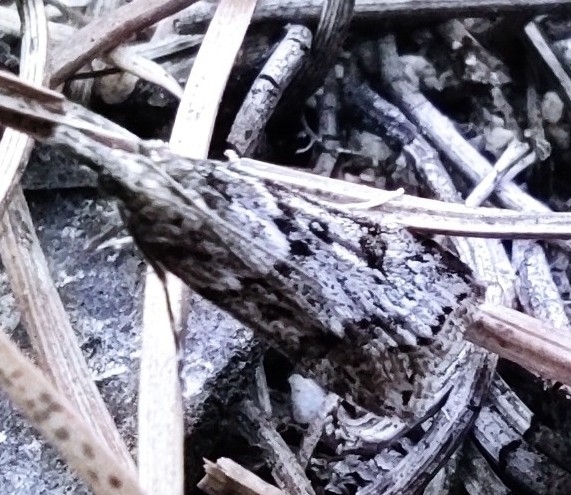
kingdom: Animalia
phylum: Arthropoda
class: Insecta
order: Lepidoptera
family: Crambidae
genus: Eudonia
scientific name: Eudonia angustea
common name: Narrow-winged grey
